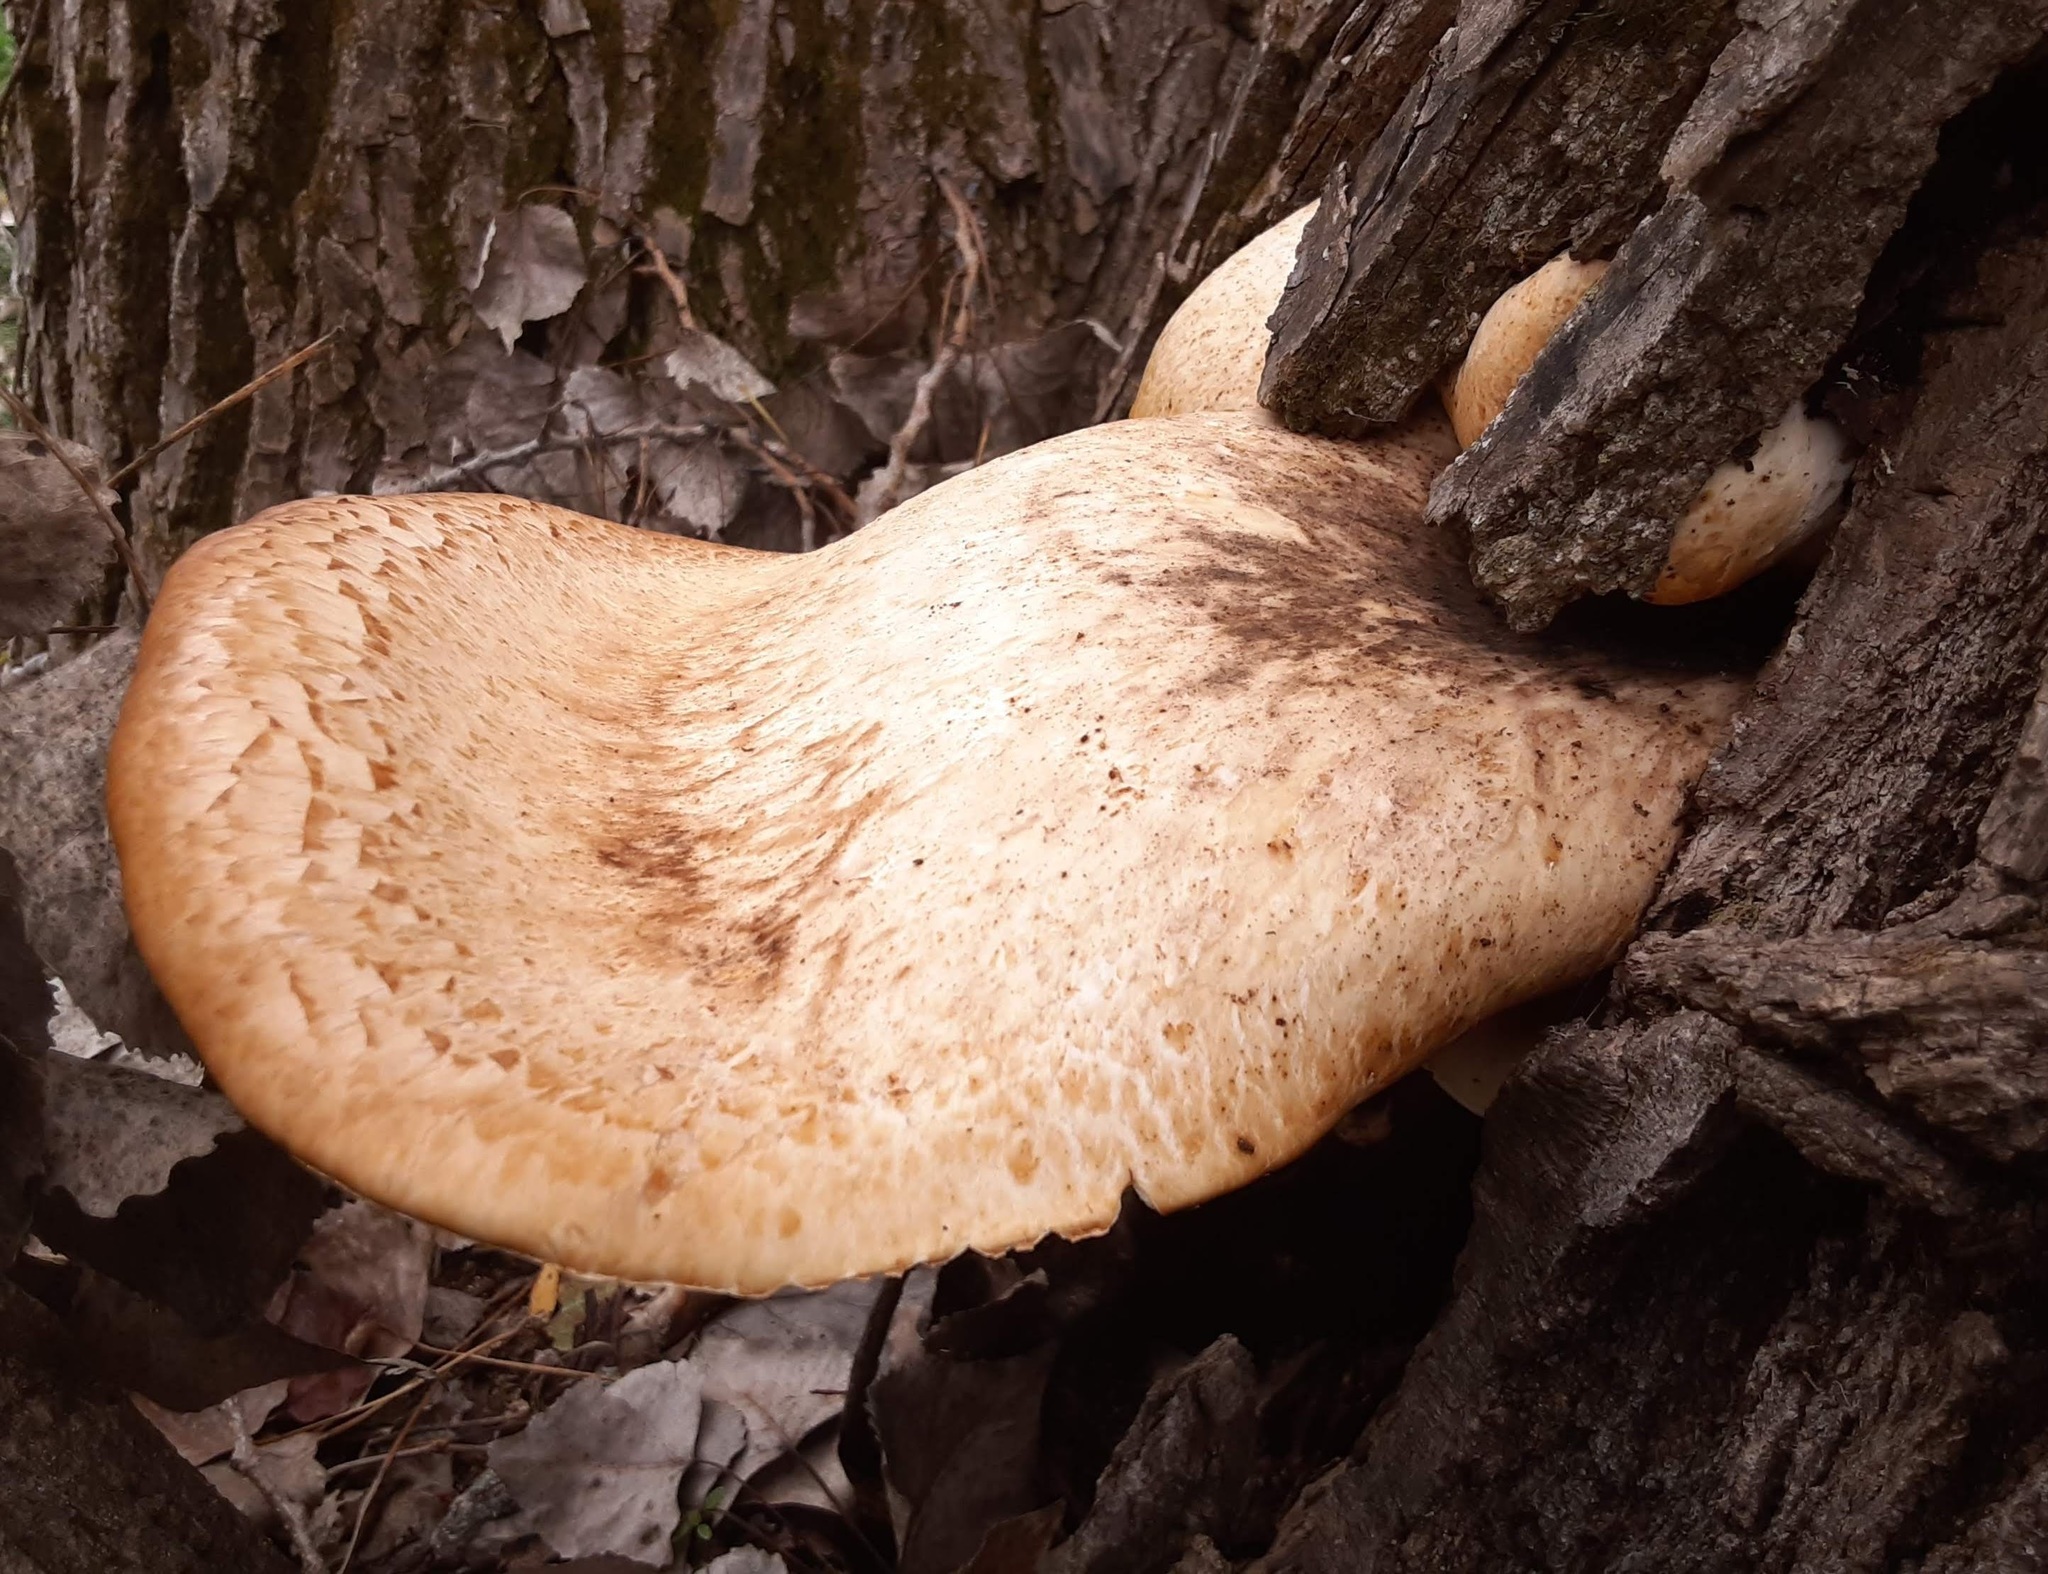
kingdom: Fungi
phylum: Basidiomycota
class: Agaricomycetes
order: Polyporales
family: Polyporaceae
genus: Cerioporus
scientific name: Cerioporus squamosus
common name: Dryad's saddle
